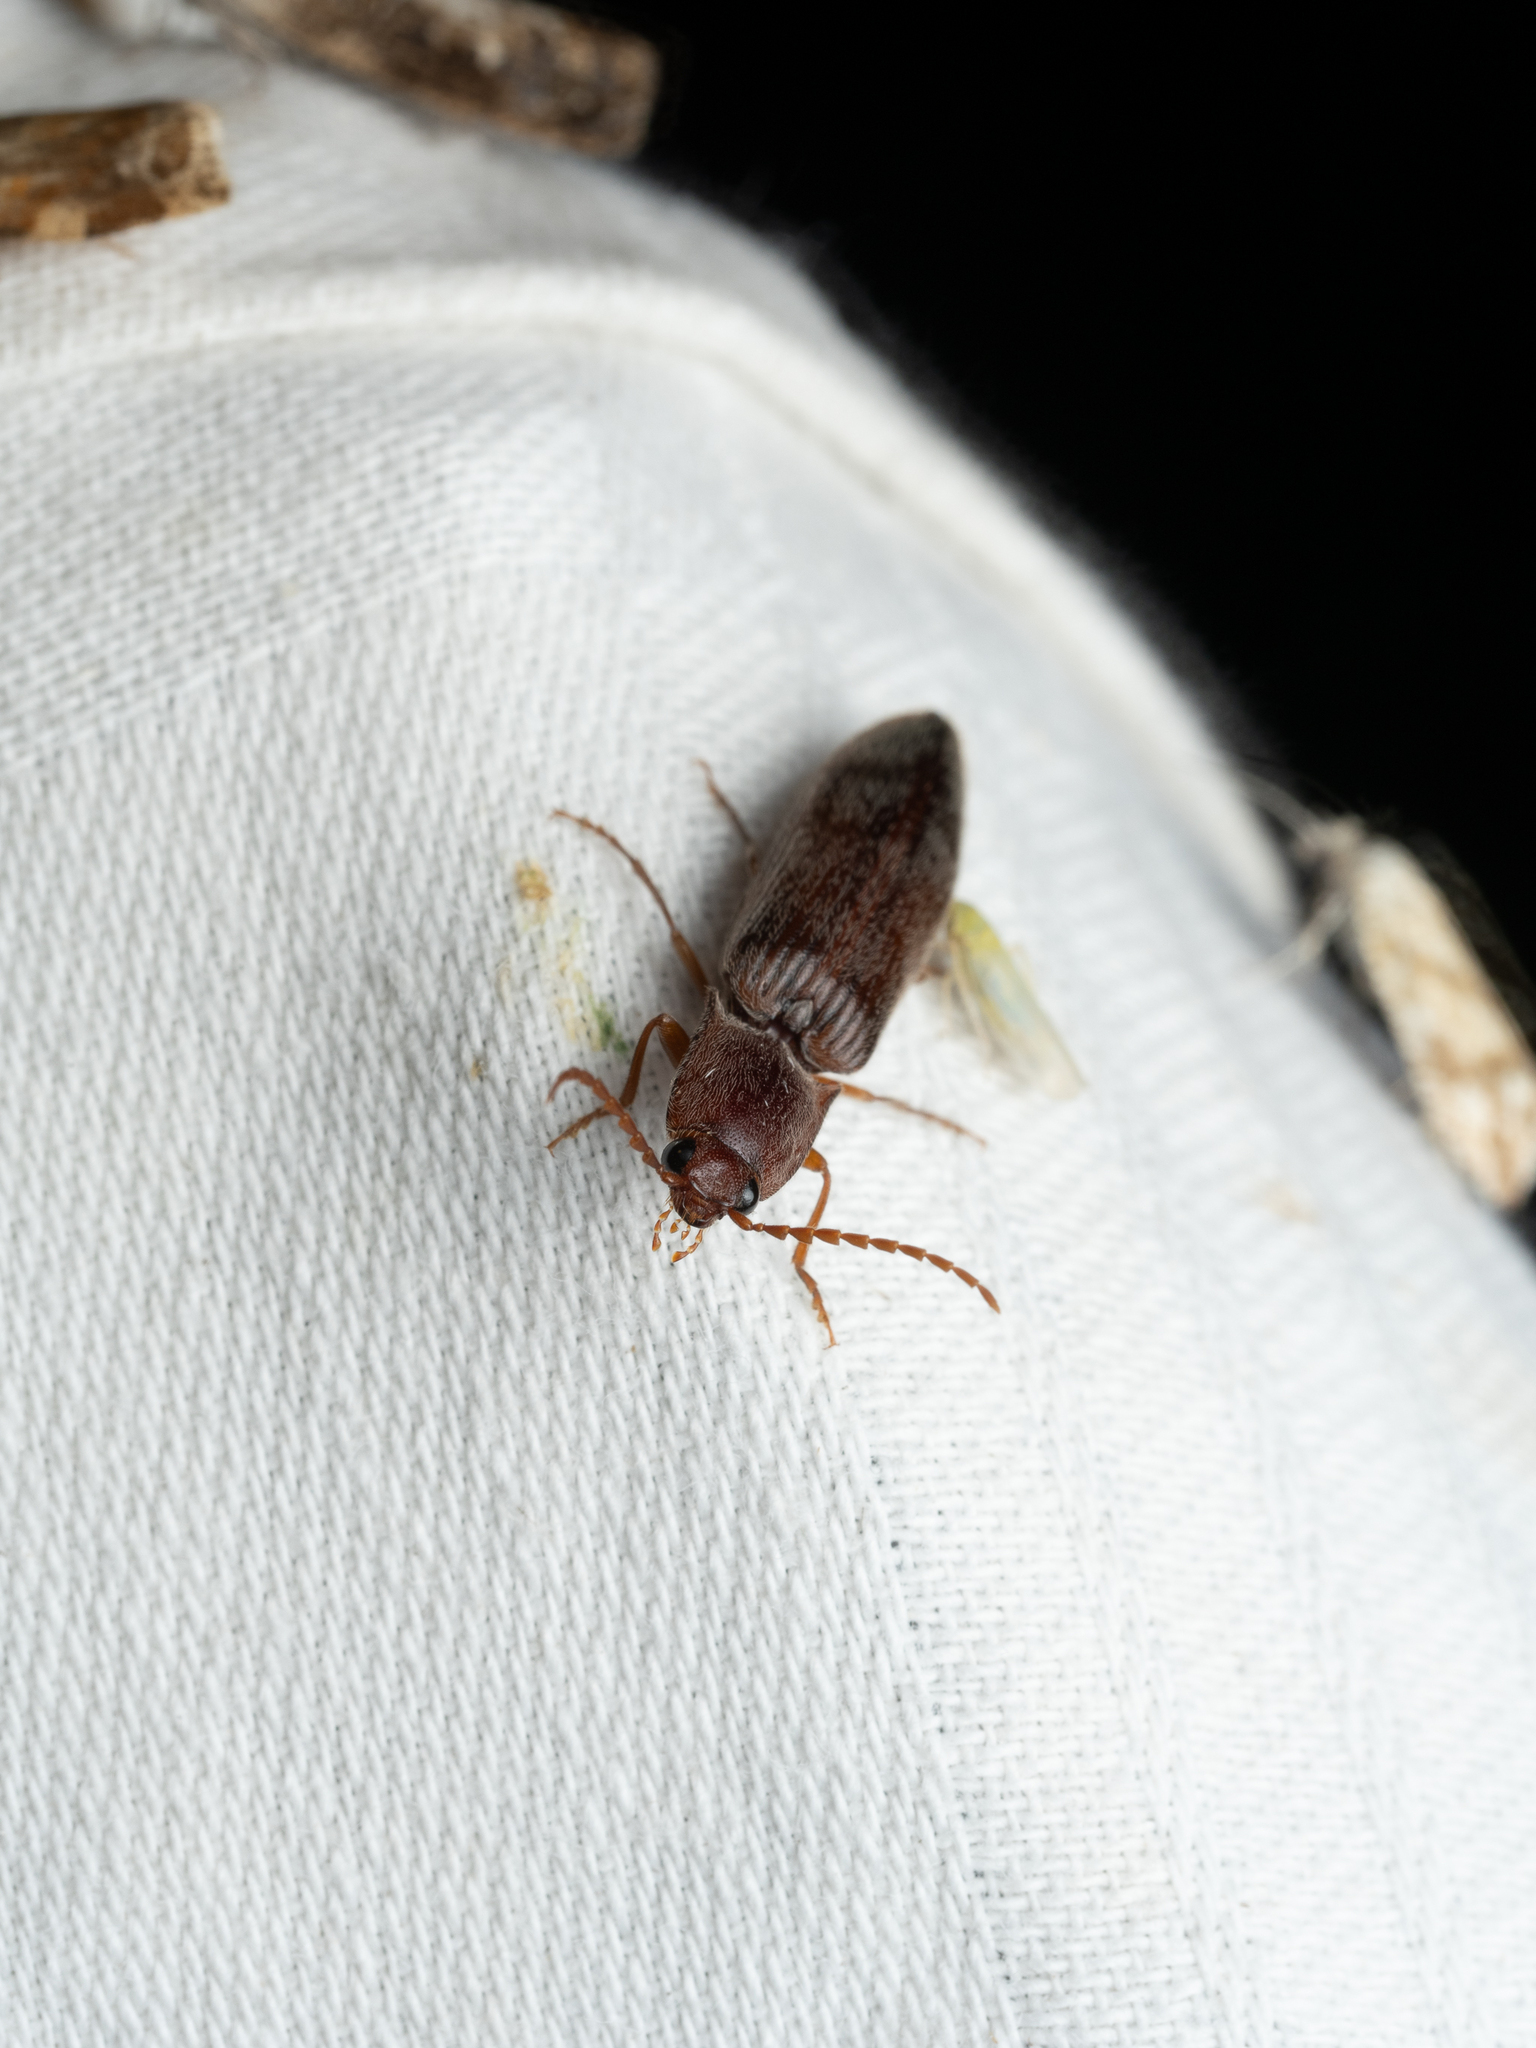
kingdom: Animalia
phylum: Arthropoda
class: Insecta
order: Coleoptera
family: Elateridae
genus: Stenagostus
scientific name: Stenagostus rhombeus
